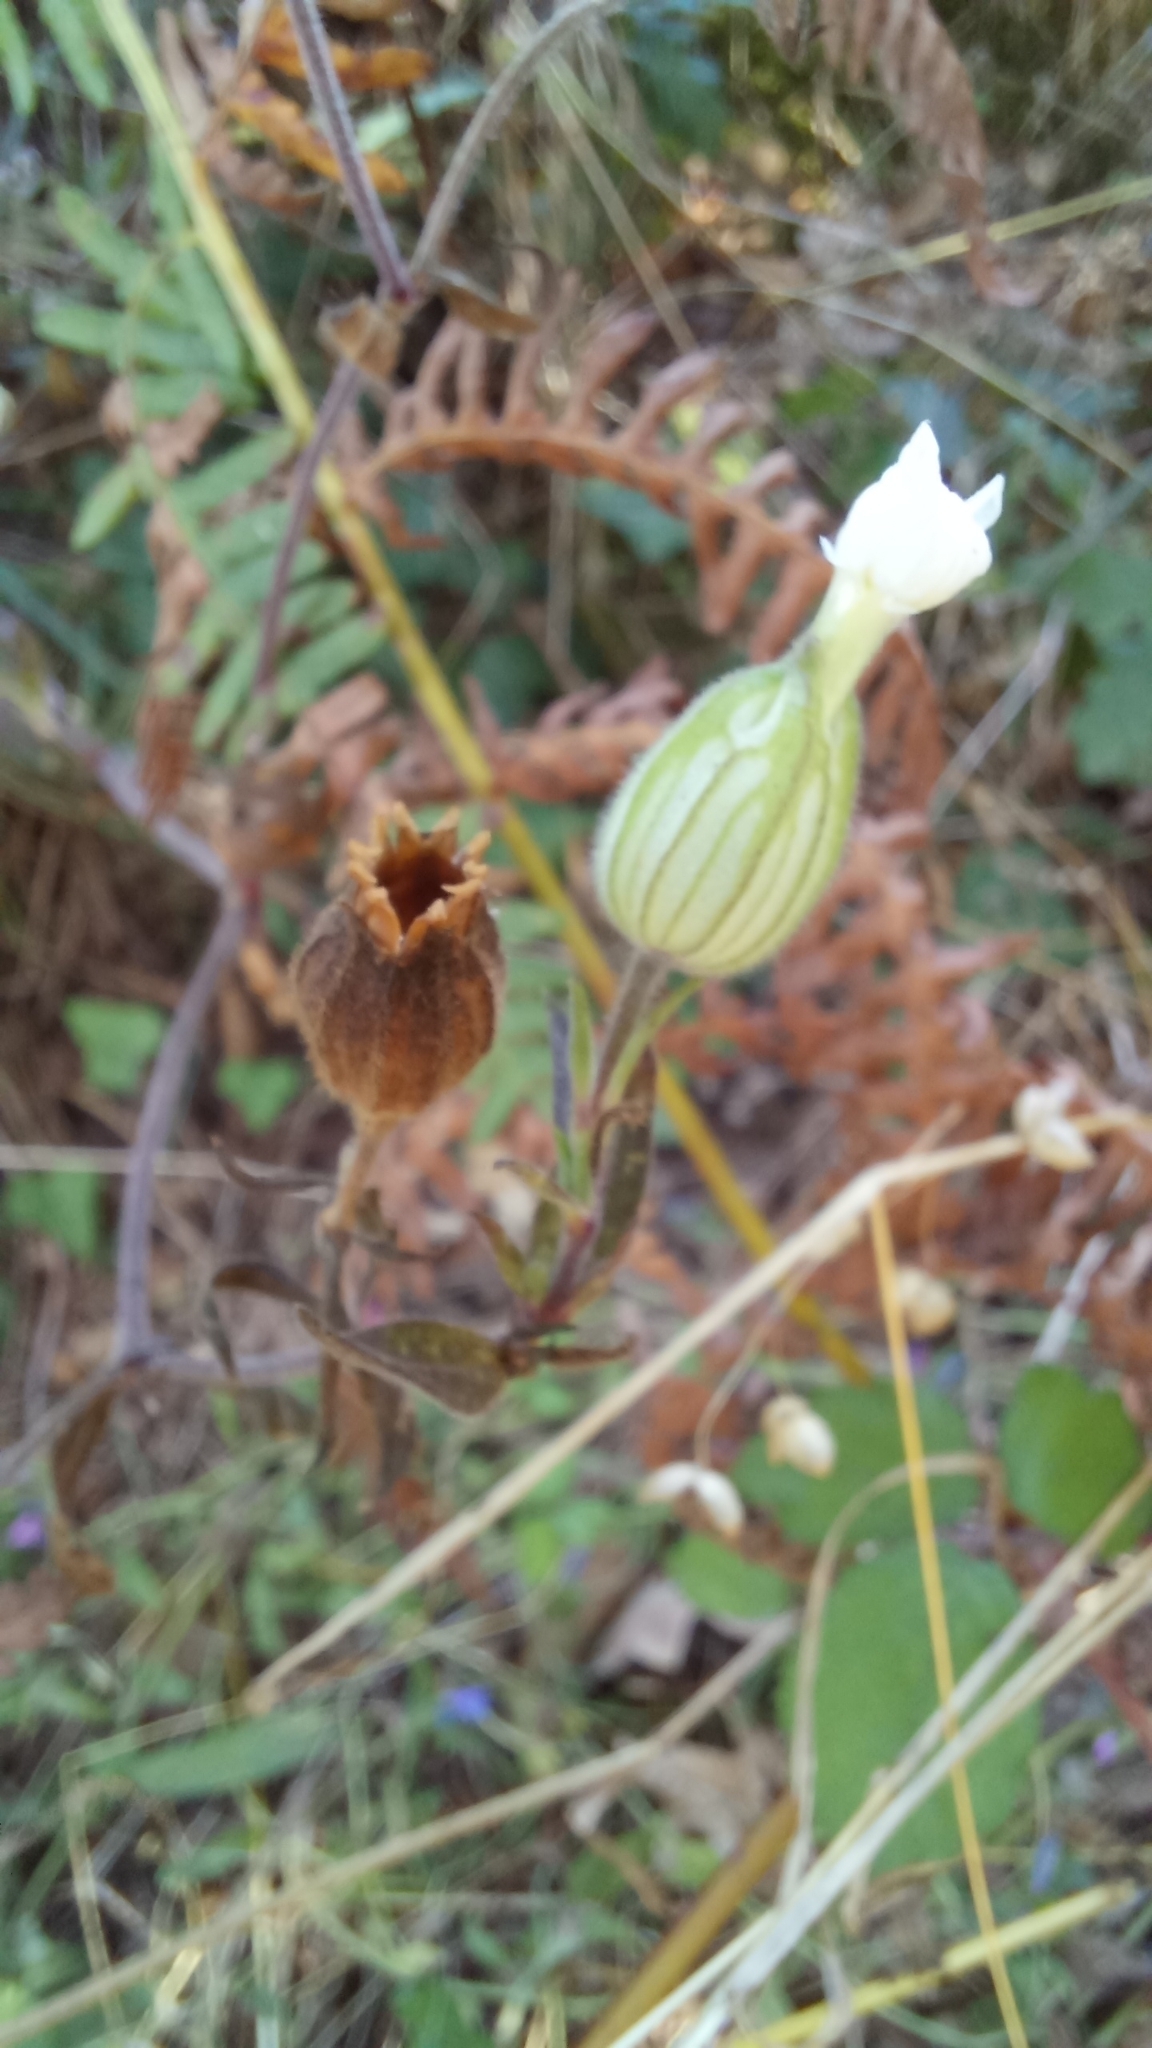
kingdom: Plantae
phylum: Tracheophyta
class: Magnoliopsida
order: Caryophyllales
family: Caryophyllaceae
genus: Silene
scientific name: Silene latifolia
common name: White campion
